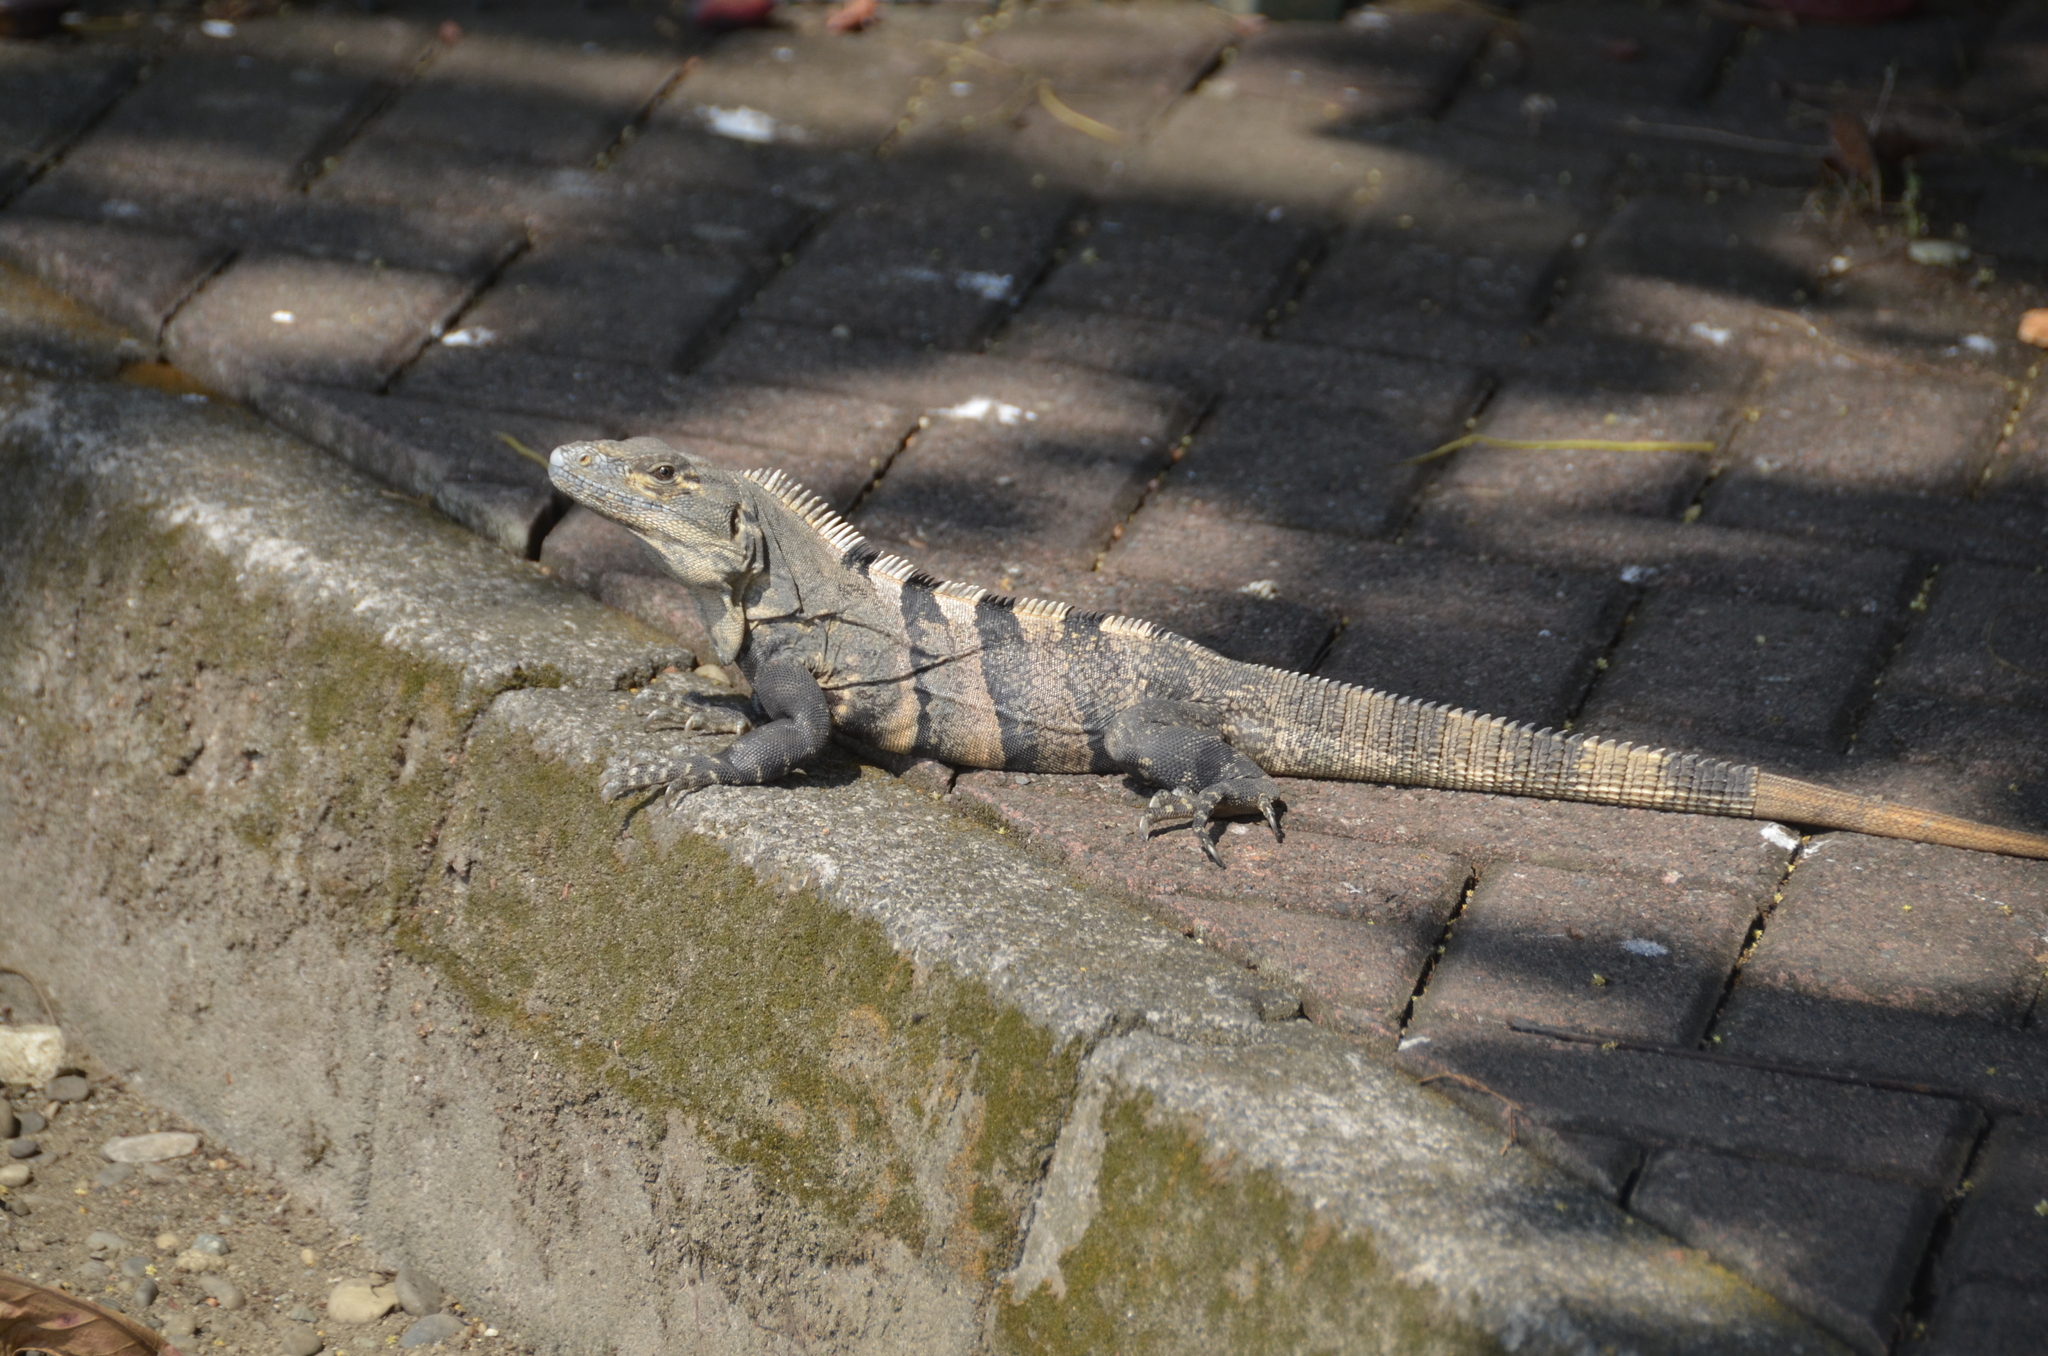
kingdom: Animalia
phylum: Chordata
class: Squamata
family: Iguanidae
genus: Ctenosaura
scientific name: Ctenosaura similis
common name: Black spiny-tailed iguana
